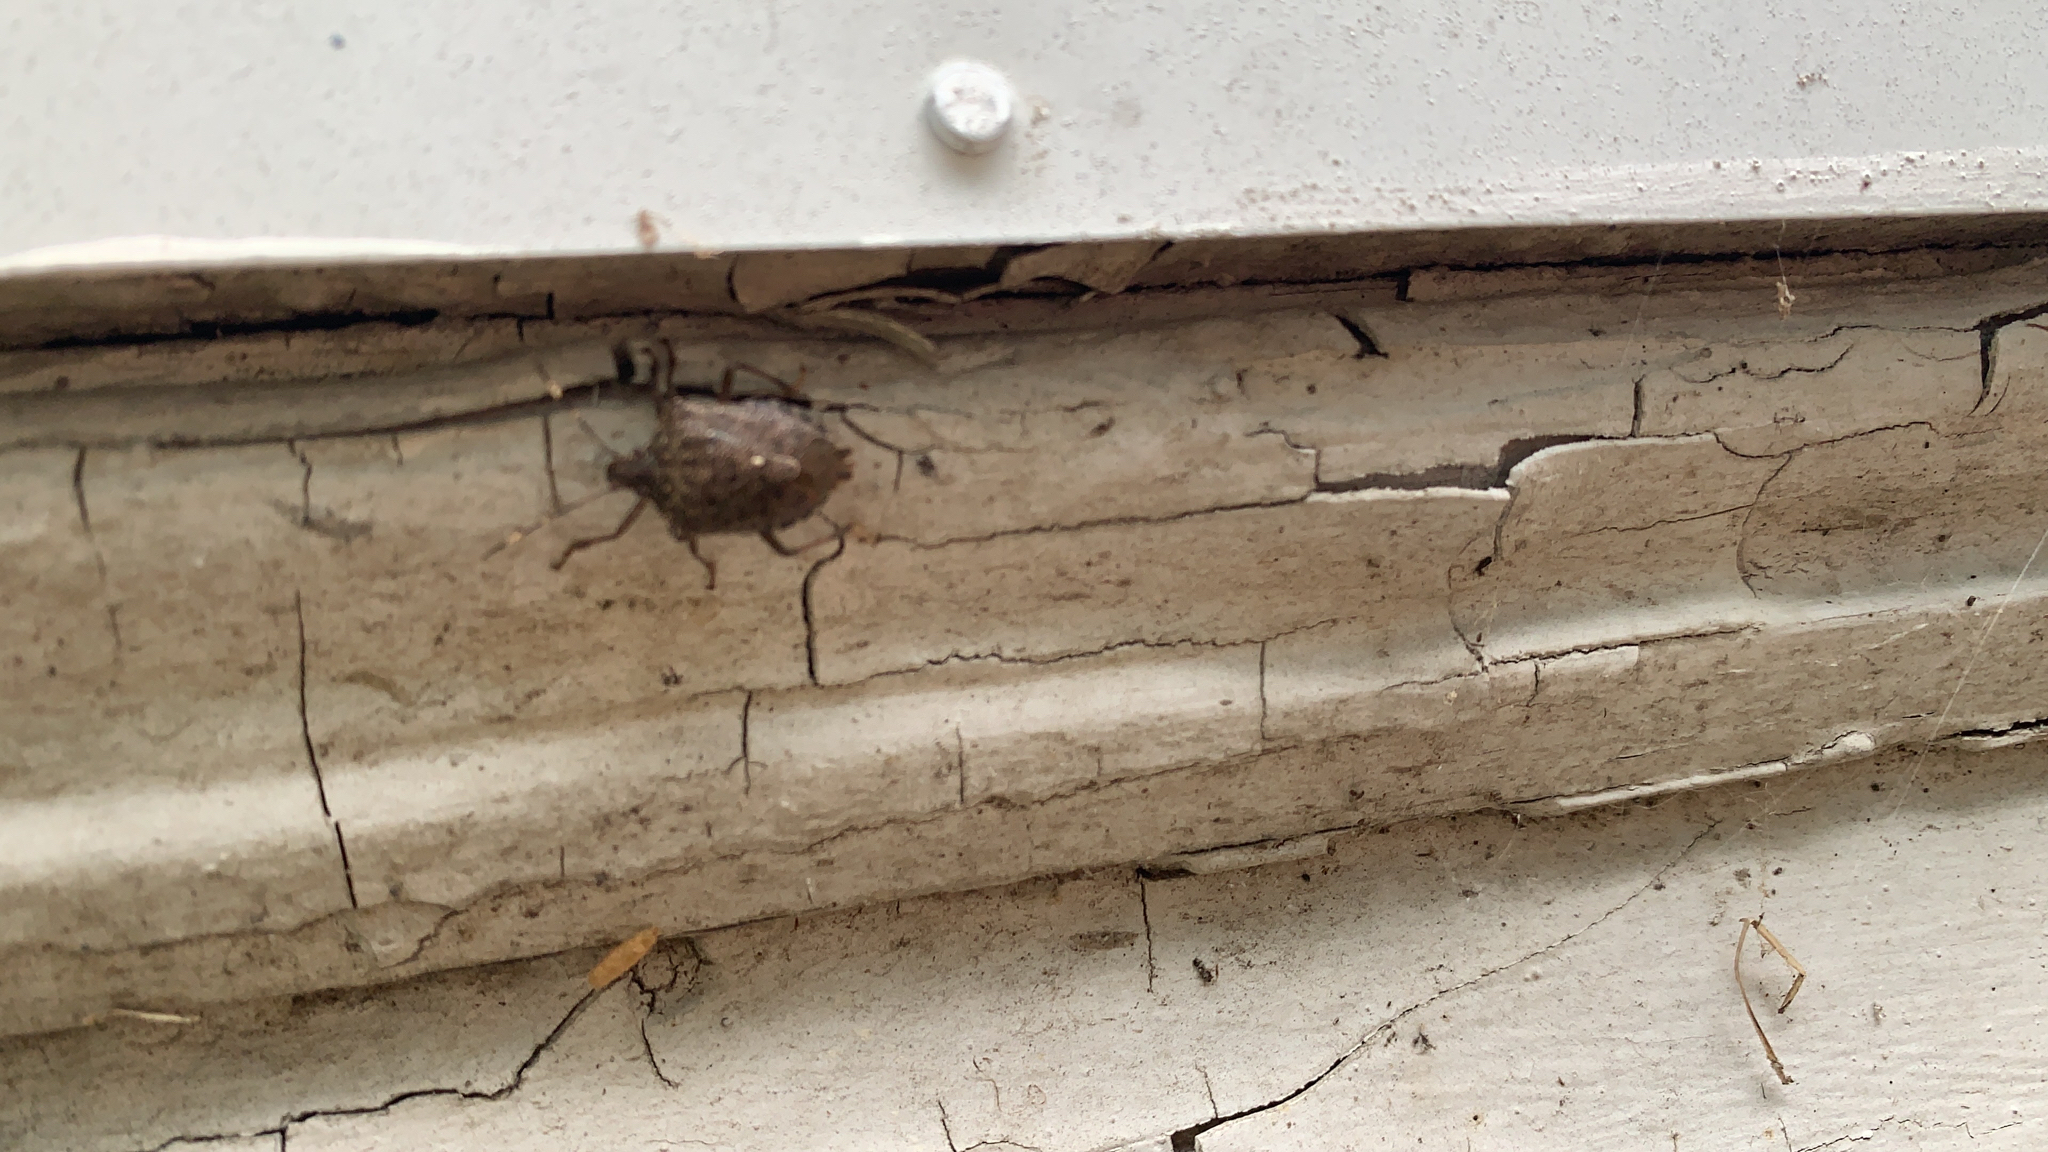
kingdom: Animalia
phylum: Arthropoda
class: Insecta
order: Hemiptera
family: Pentatomidae
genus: Halyomorpha
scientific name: Halyomorpha halys
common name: Brown marmorated stink bug
